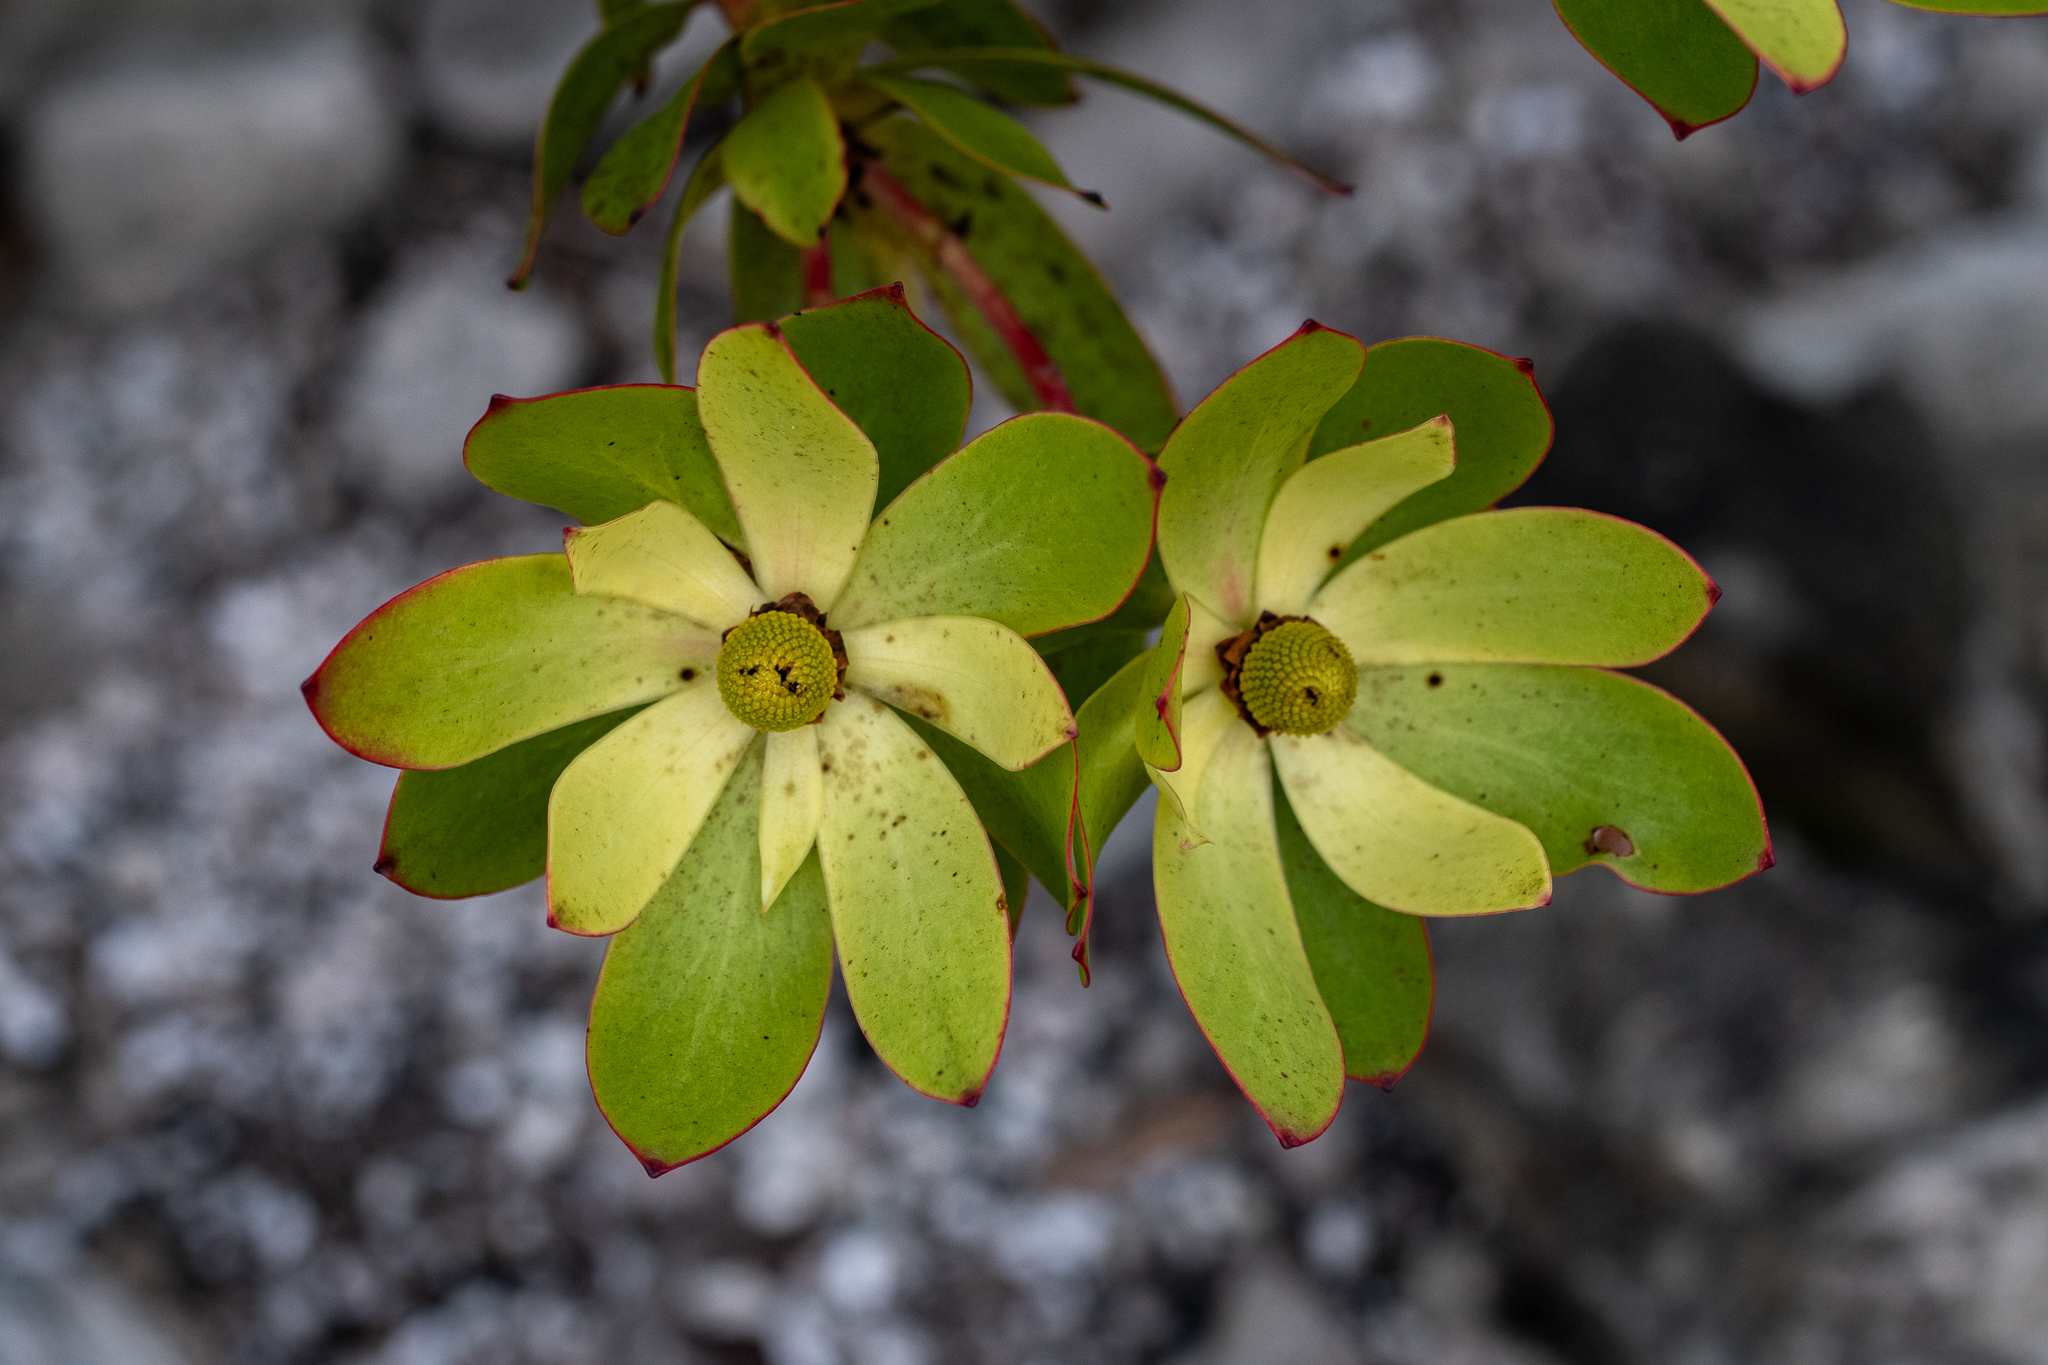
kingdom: Plantae
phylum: Tracheophyta
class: Magnoliopsida
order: Proteales
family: Proteaceae
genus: Leucadendron
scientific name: Leucadendron gandogeri
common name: Broad-leaf conebush
